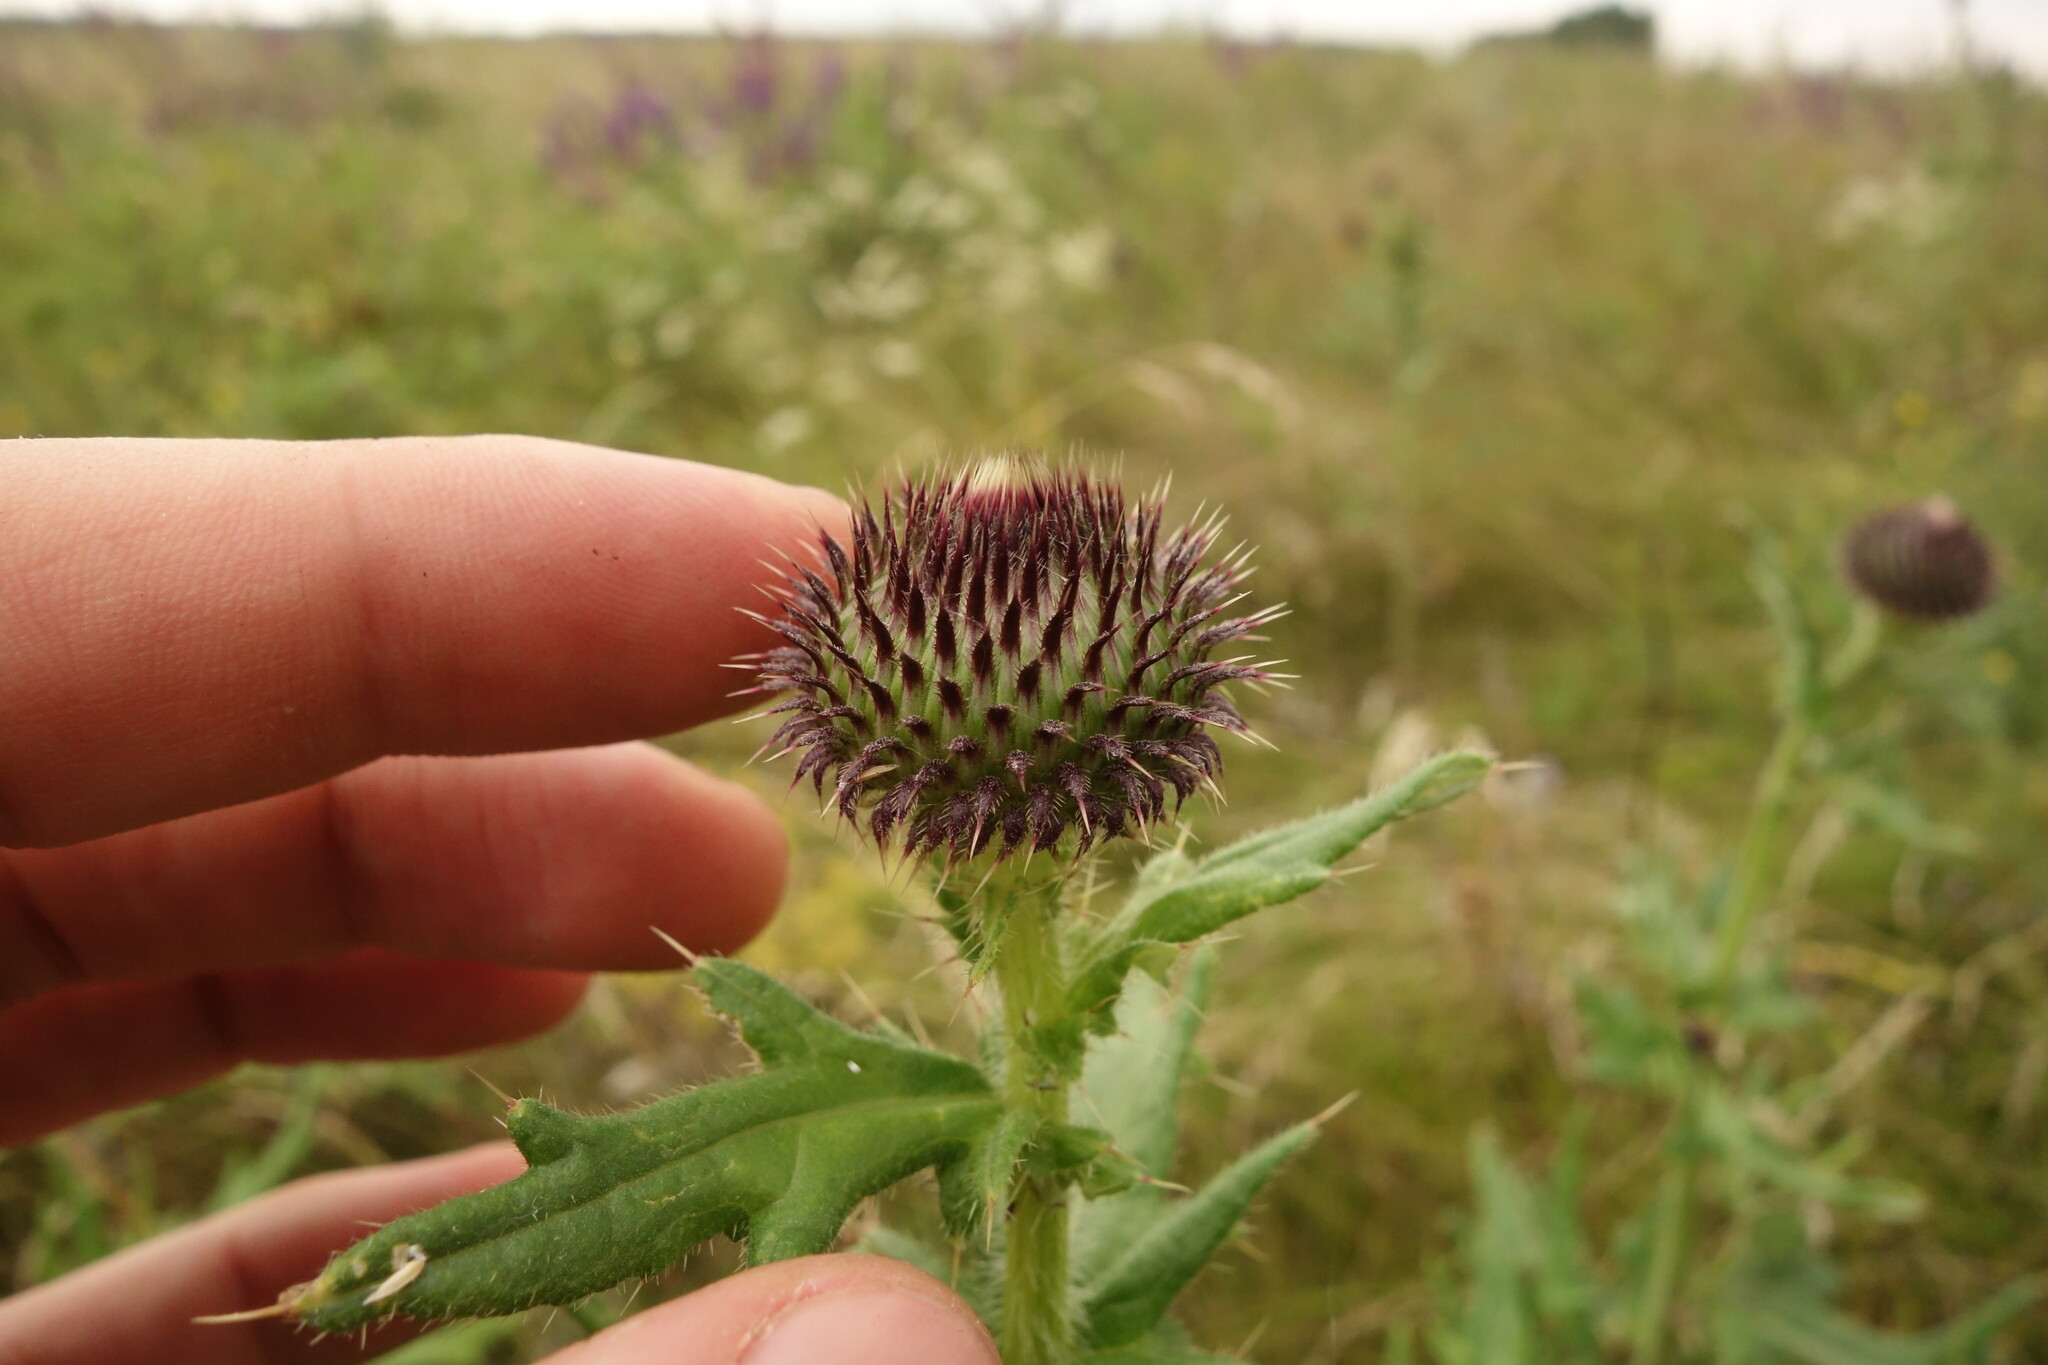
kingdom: Plantae
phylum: Tracheophyta
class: Magnoliopsida
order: Asterales
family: Asteraceae
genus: Cirsium
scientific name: Cirsium serrulatum
